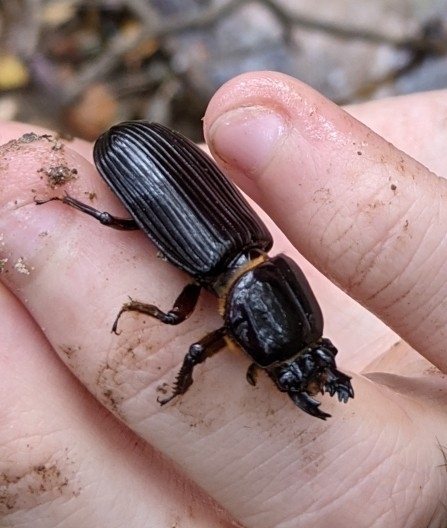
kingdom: Animalia
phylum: Arthropoda
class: Insecta
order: Coleoptera
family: Passalidae
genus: Odontotaenius
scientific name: Odontotaenius disjunctus
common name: Patent leather beetle
